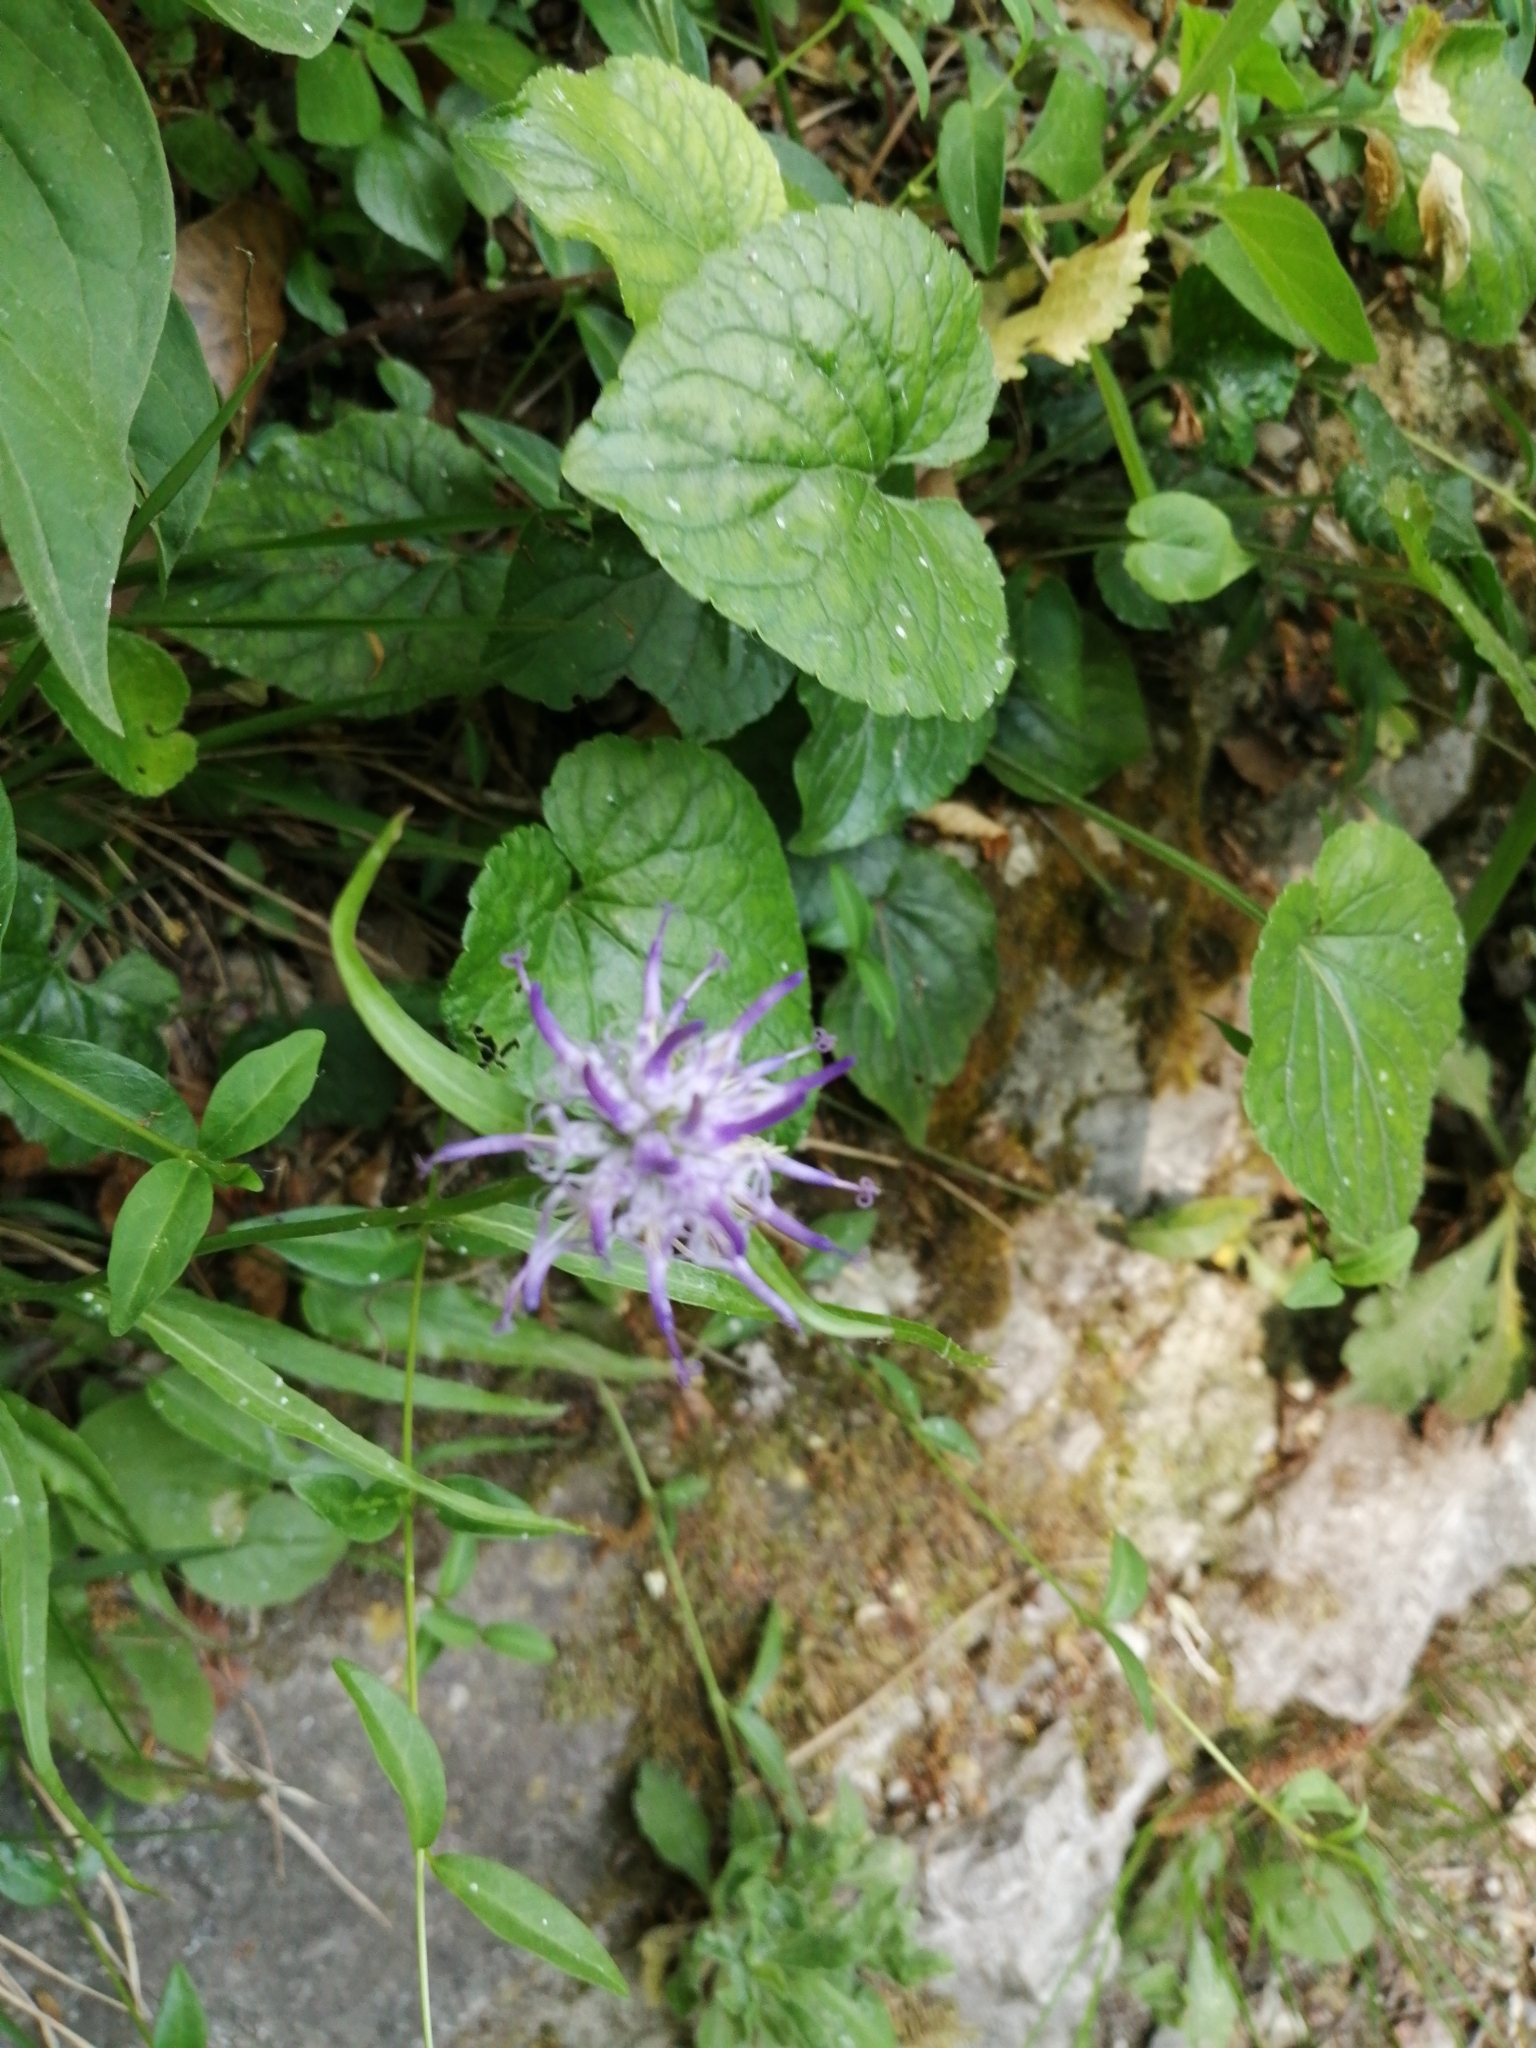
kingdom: Plantae
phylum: Tracheophyta
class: Magnoliopsida
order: Asterales
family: Campanulaceae
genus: Phyteuma
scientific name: Phyteuma scheuchzeri
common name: Oxford rampion
